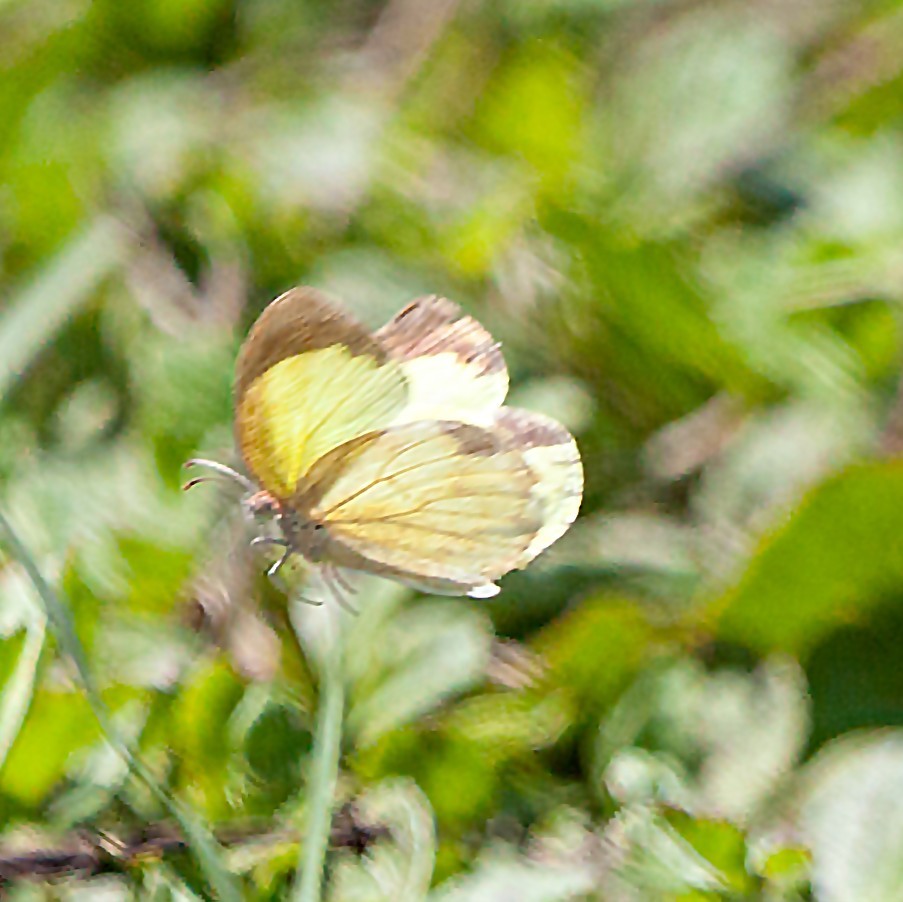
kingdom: Animalia
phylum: Arthropoda
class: Insecta
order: Lepidoptera
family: Pieridae
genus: Eurema
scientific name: Eurema daira
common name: Barred sulphur
